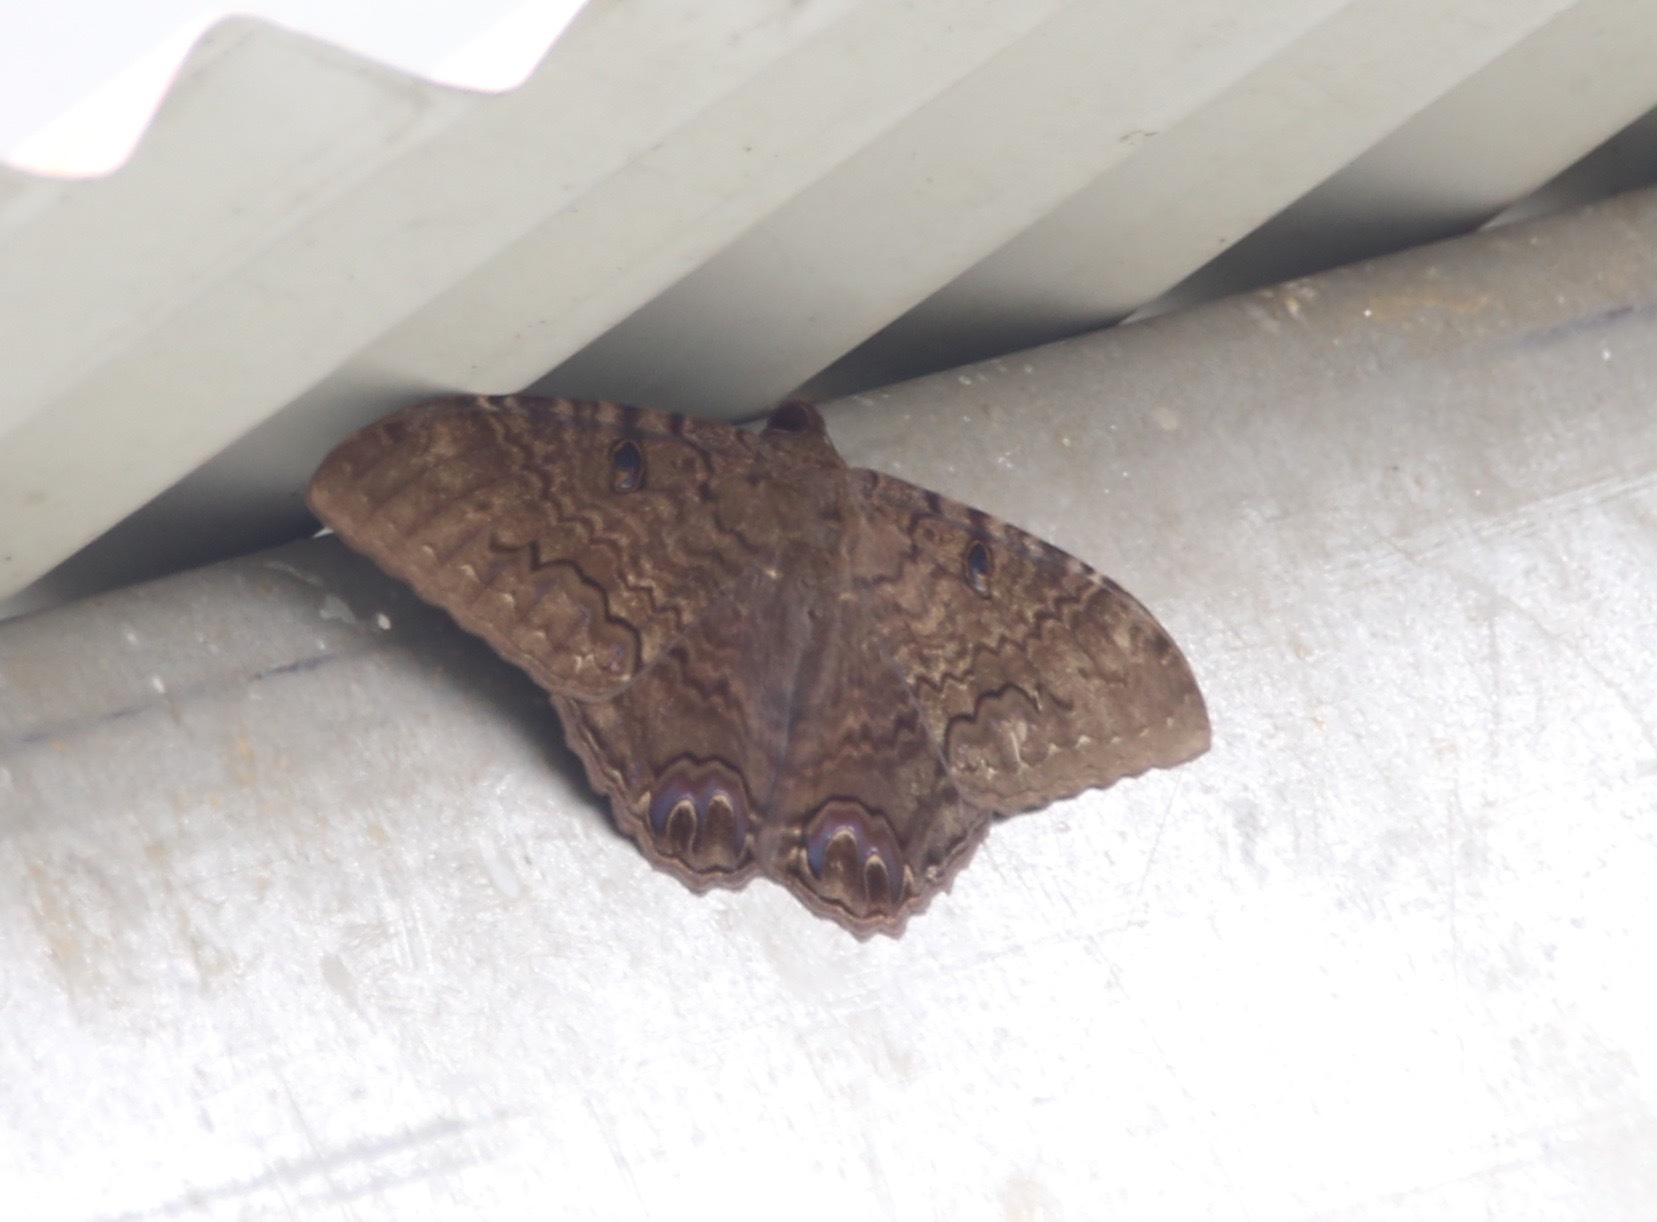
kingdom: Animalia
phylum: Arthropoda
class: Insecta
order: Lepidoptera
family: Erebidae
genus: Ascalapha
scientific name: Ascalapha odorata
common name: Black witch
